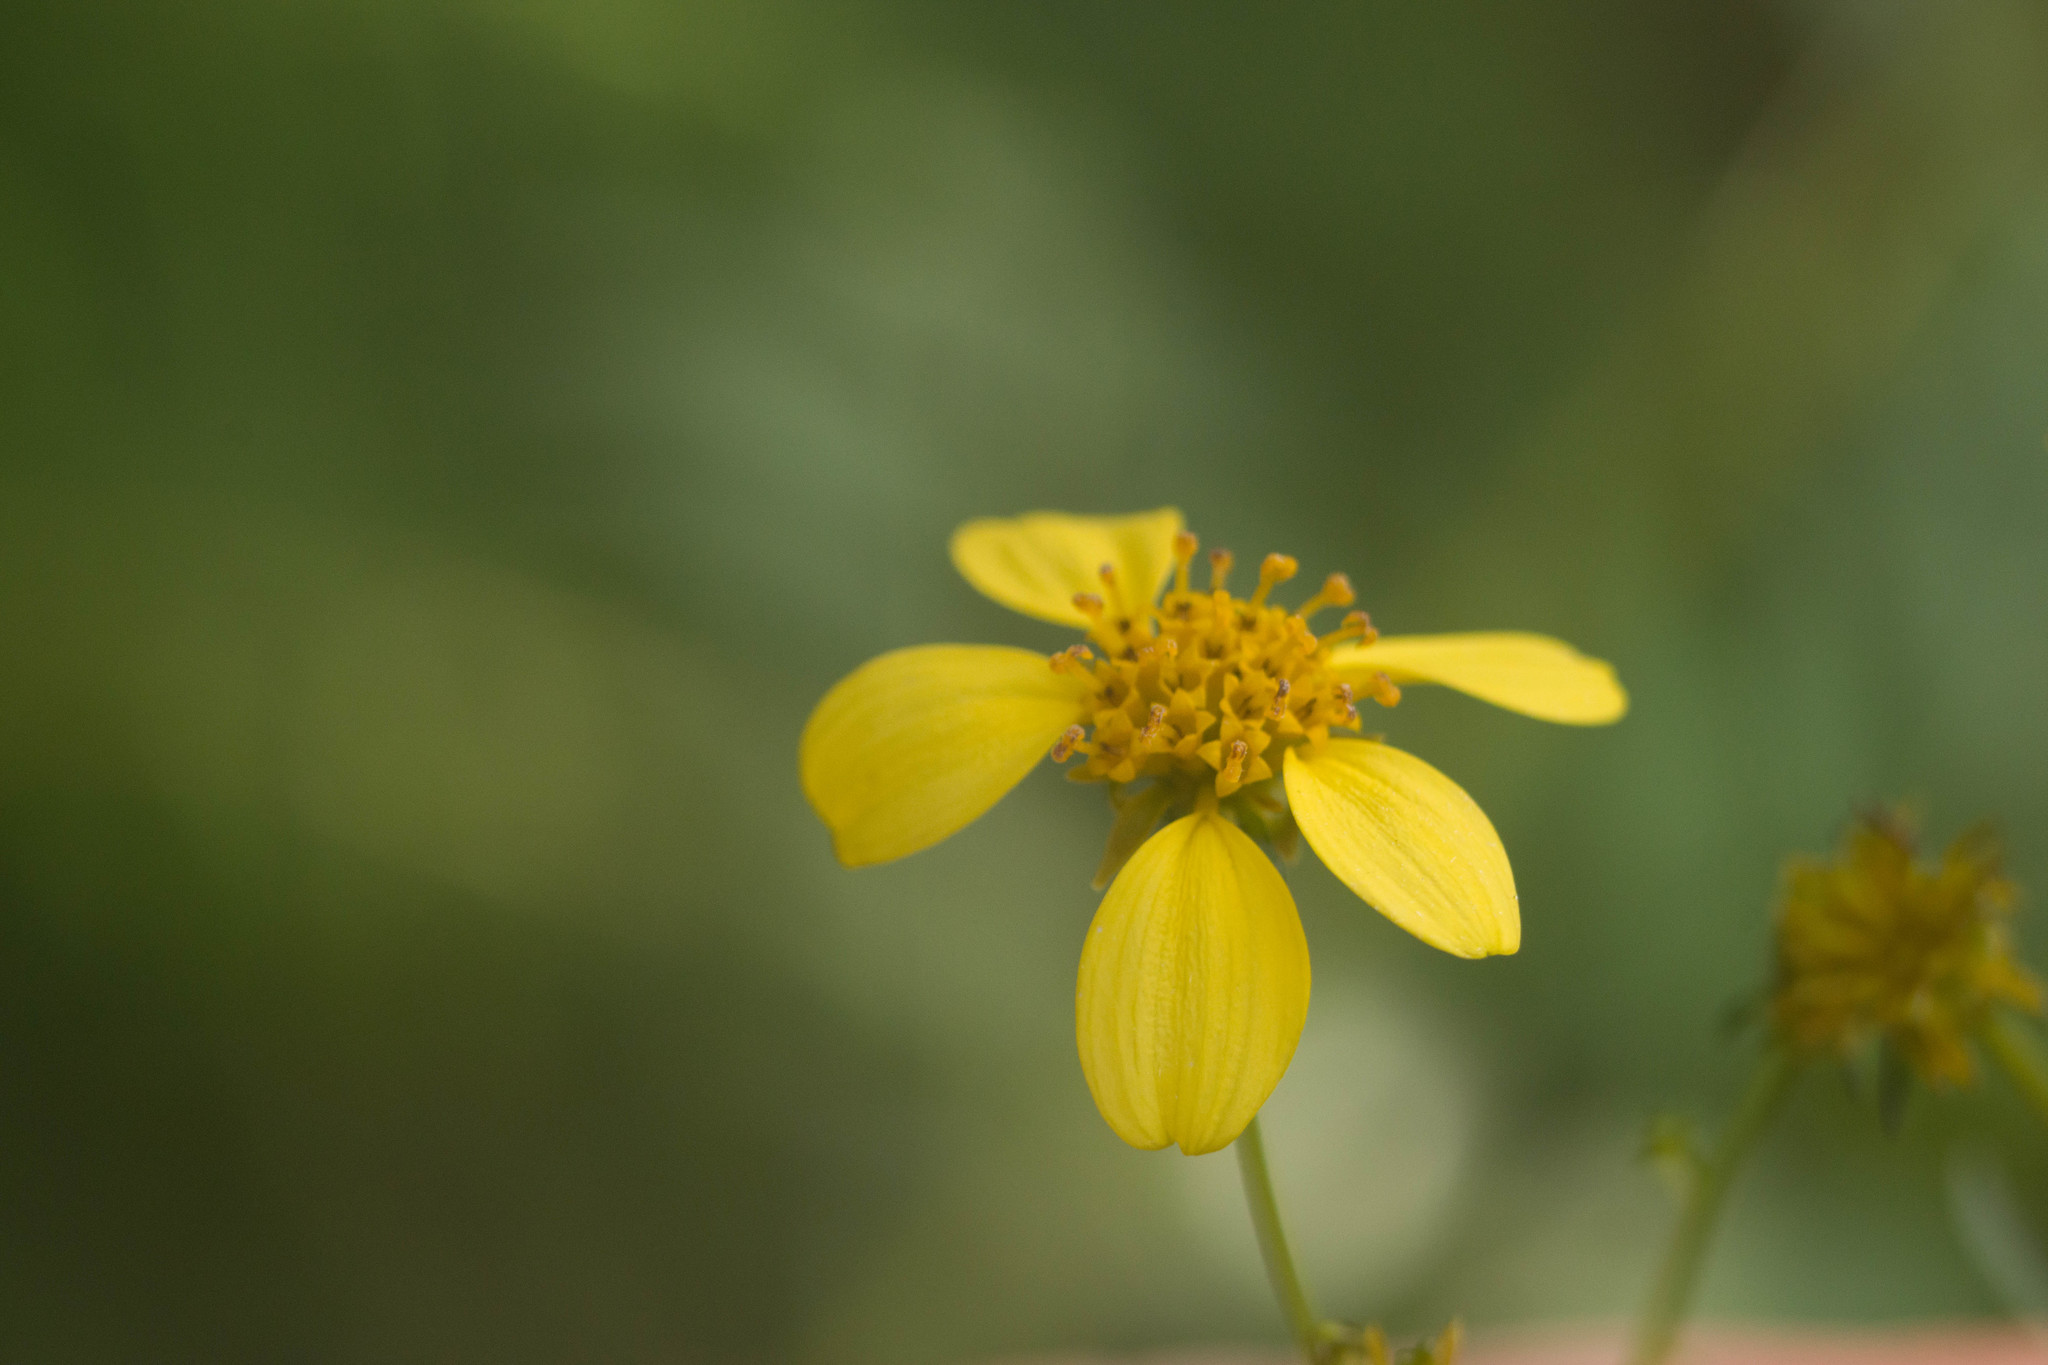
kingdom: Plantae
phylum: Tracheophyta
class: Magnoliopsida
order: Asterales
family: Asteraceae
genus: Bidens
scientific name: Bidens torta
